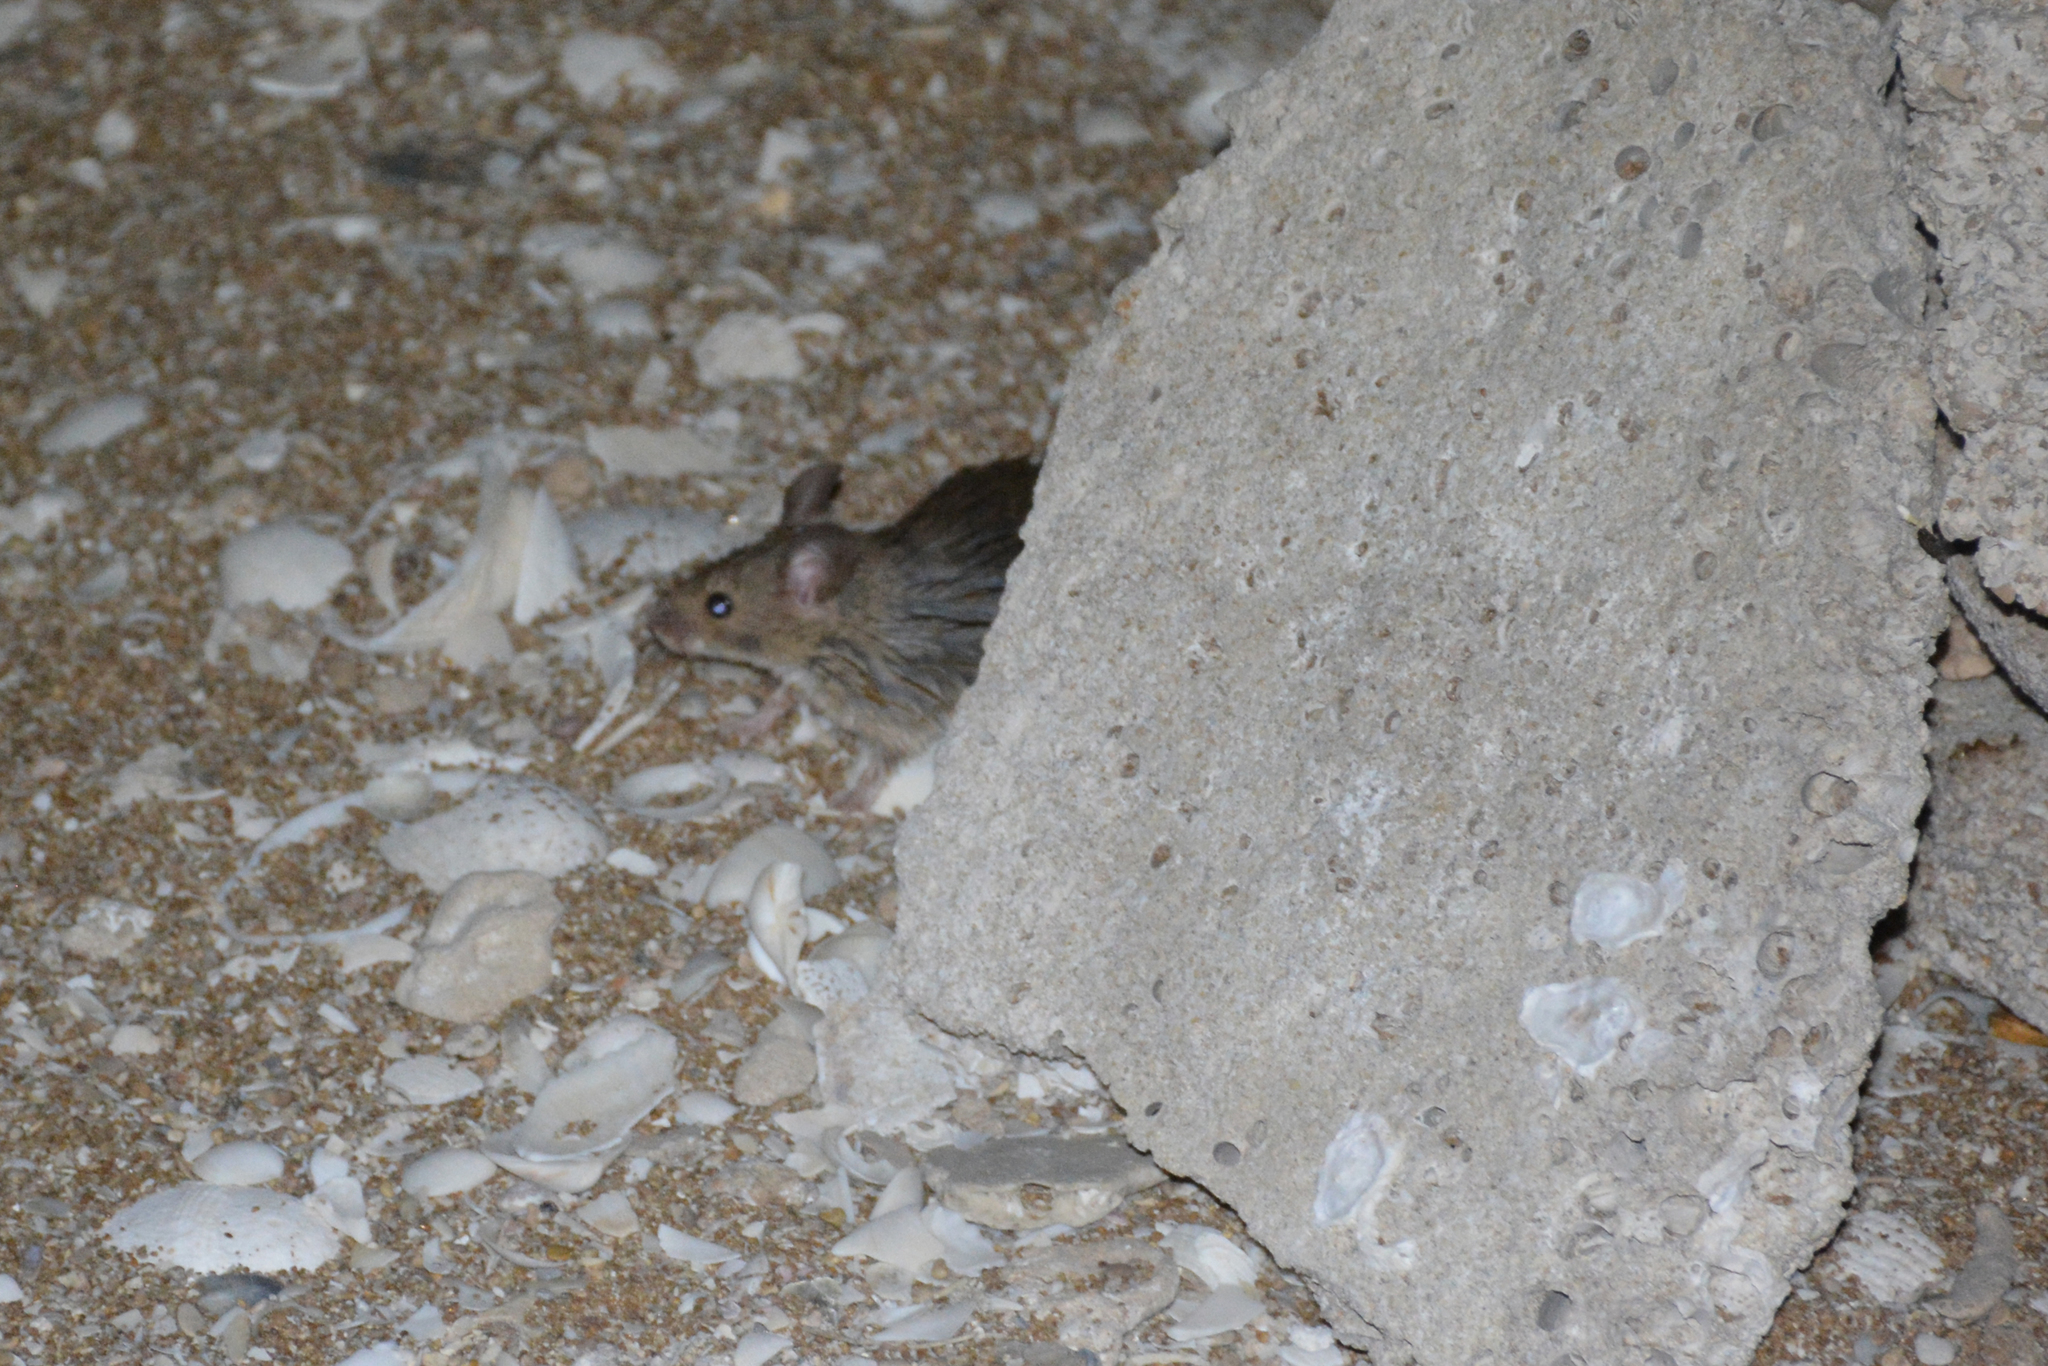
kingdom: Animalia
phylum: Chordata
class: Mammalia
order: Rodentia
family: Muridae
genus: Mus
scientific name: Mus musculus
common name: House mouse
